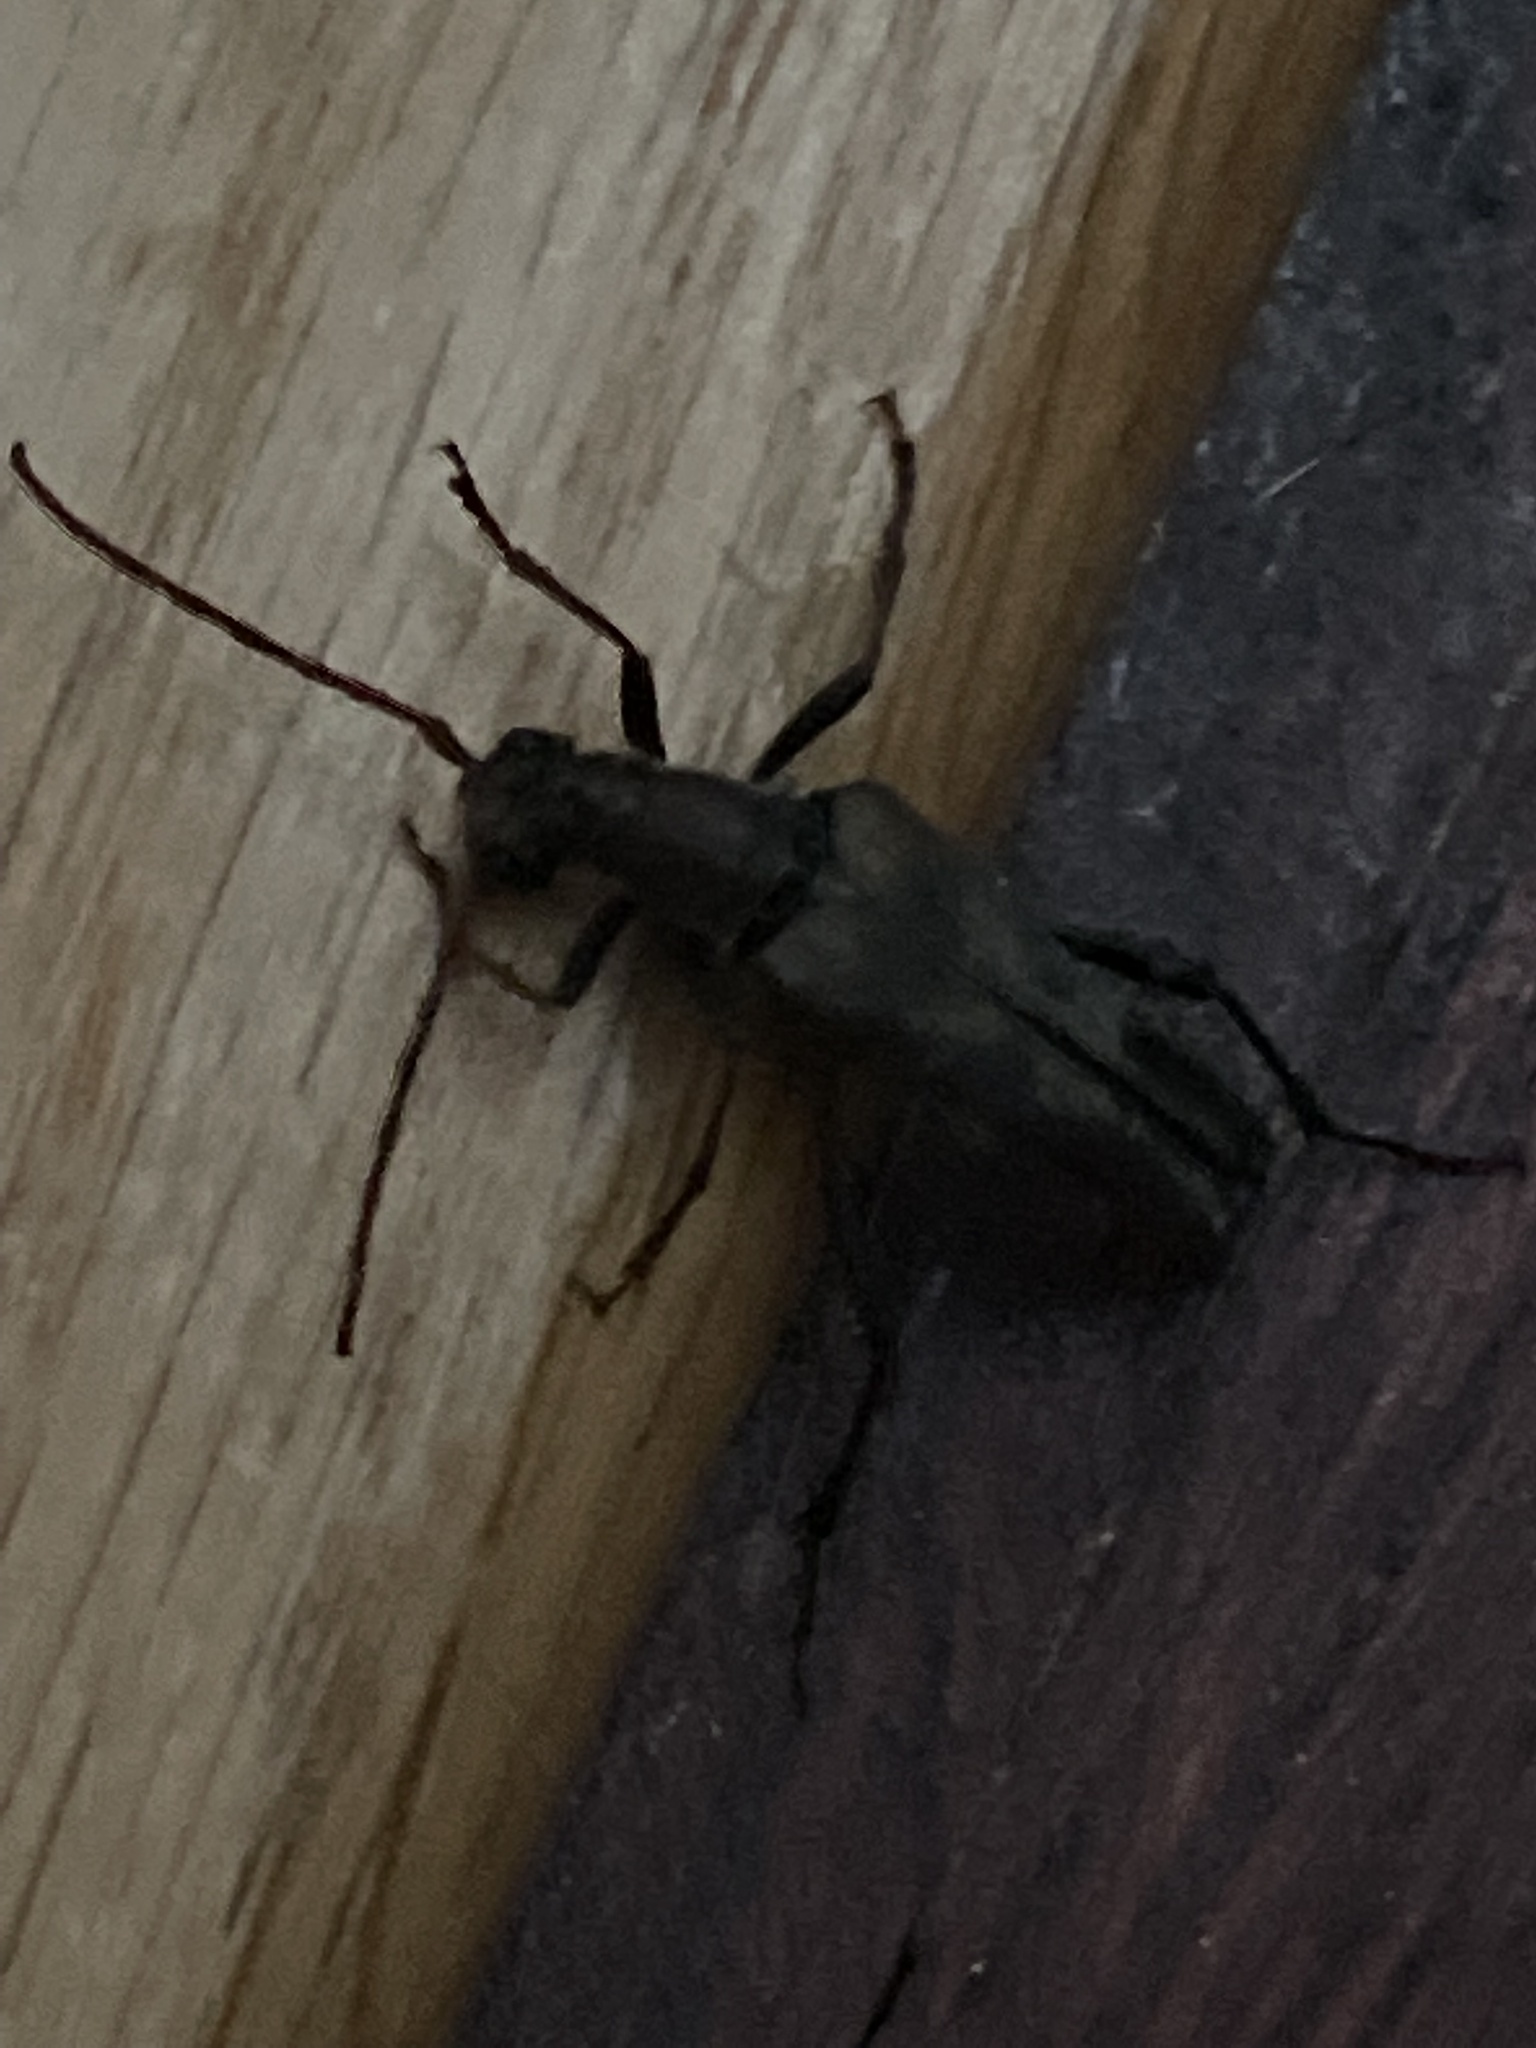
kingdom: Animalia
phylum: Arthropoda
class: Insecta
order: Coleoptera
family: Cerambycidae
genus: Bellamira
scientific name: Bellamira scalaris
